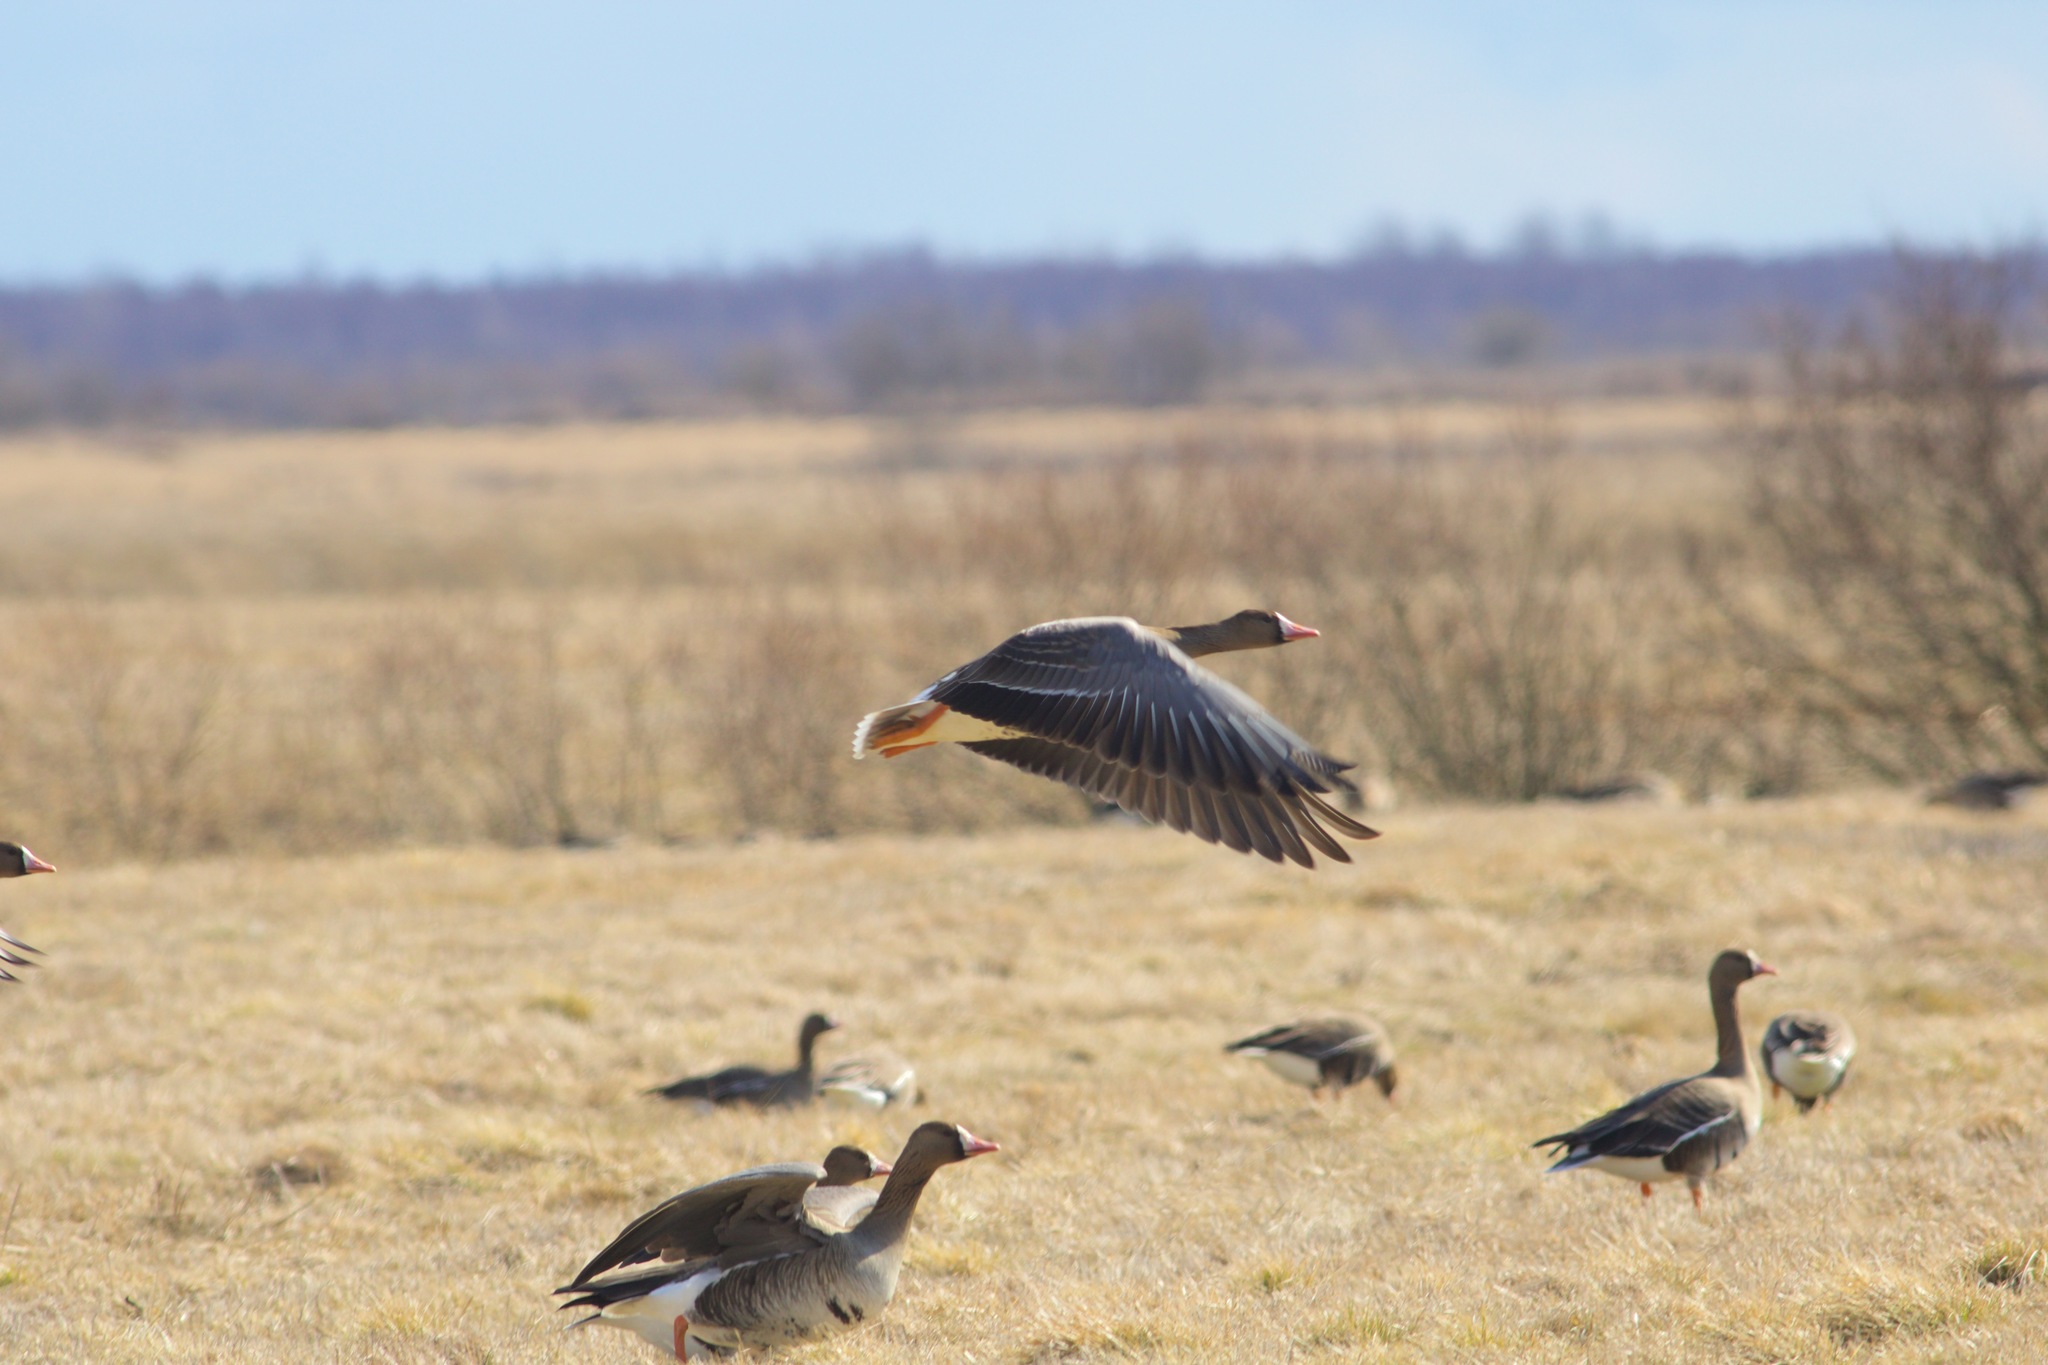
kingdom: Animalia
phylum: Chordata
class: Aves
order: Anseriformes
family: Anatidae
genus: Anser
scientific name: Anser albifrons
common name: Greater white-fronted goose
